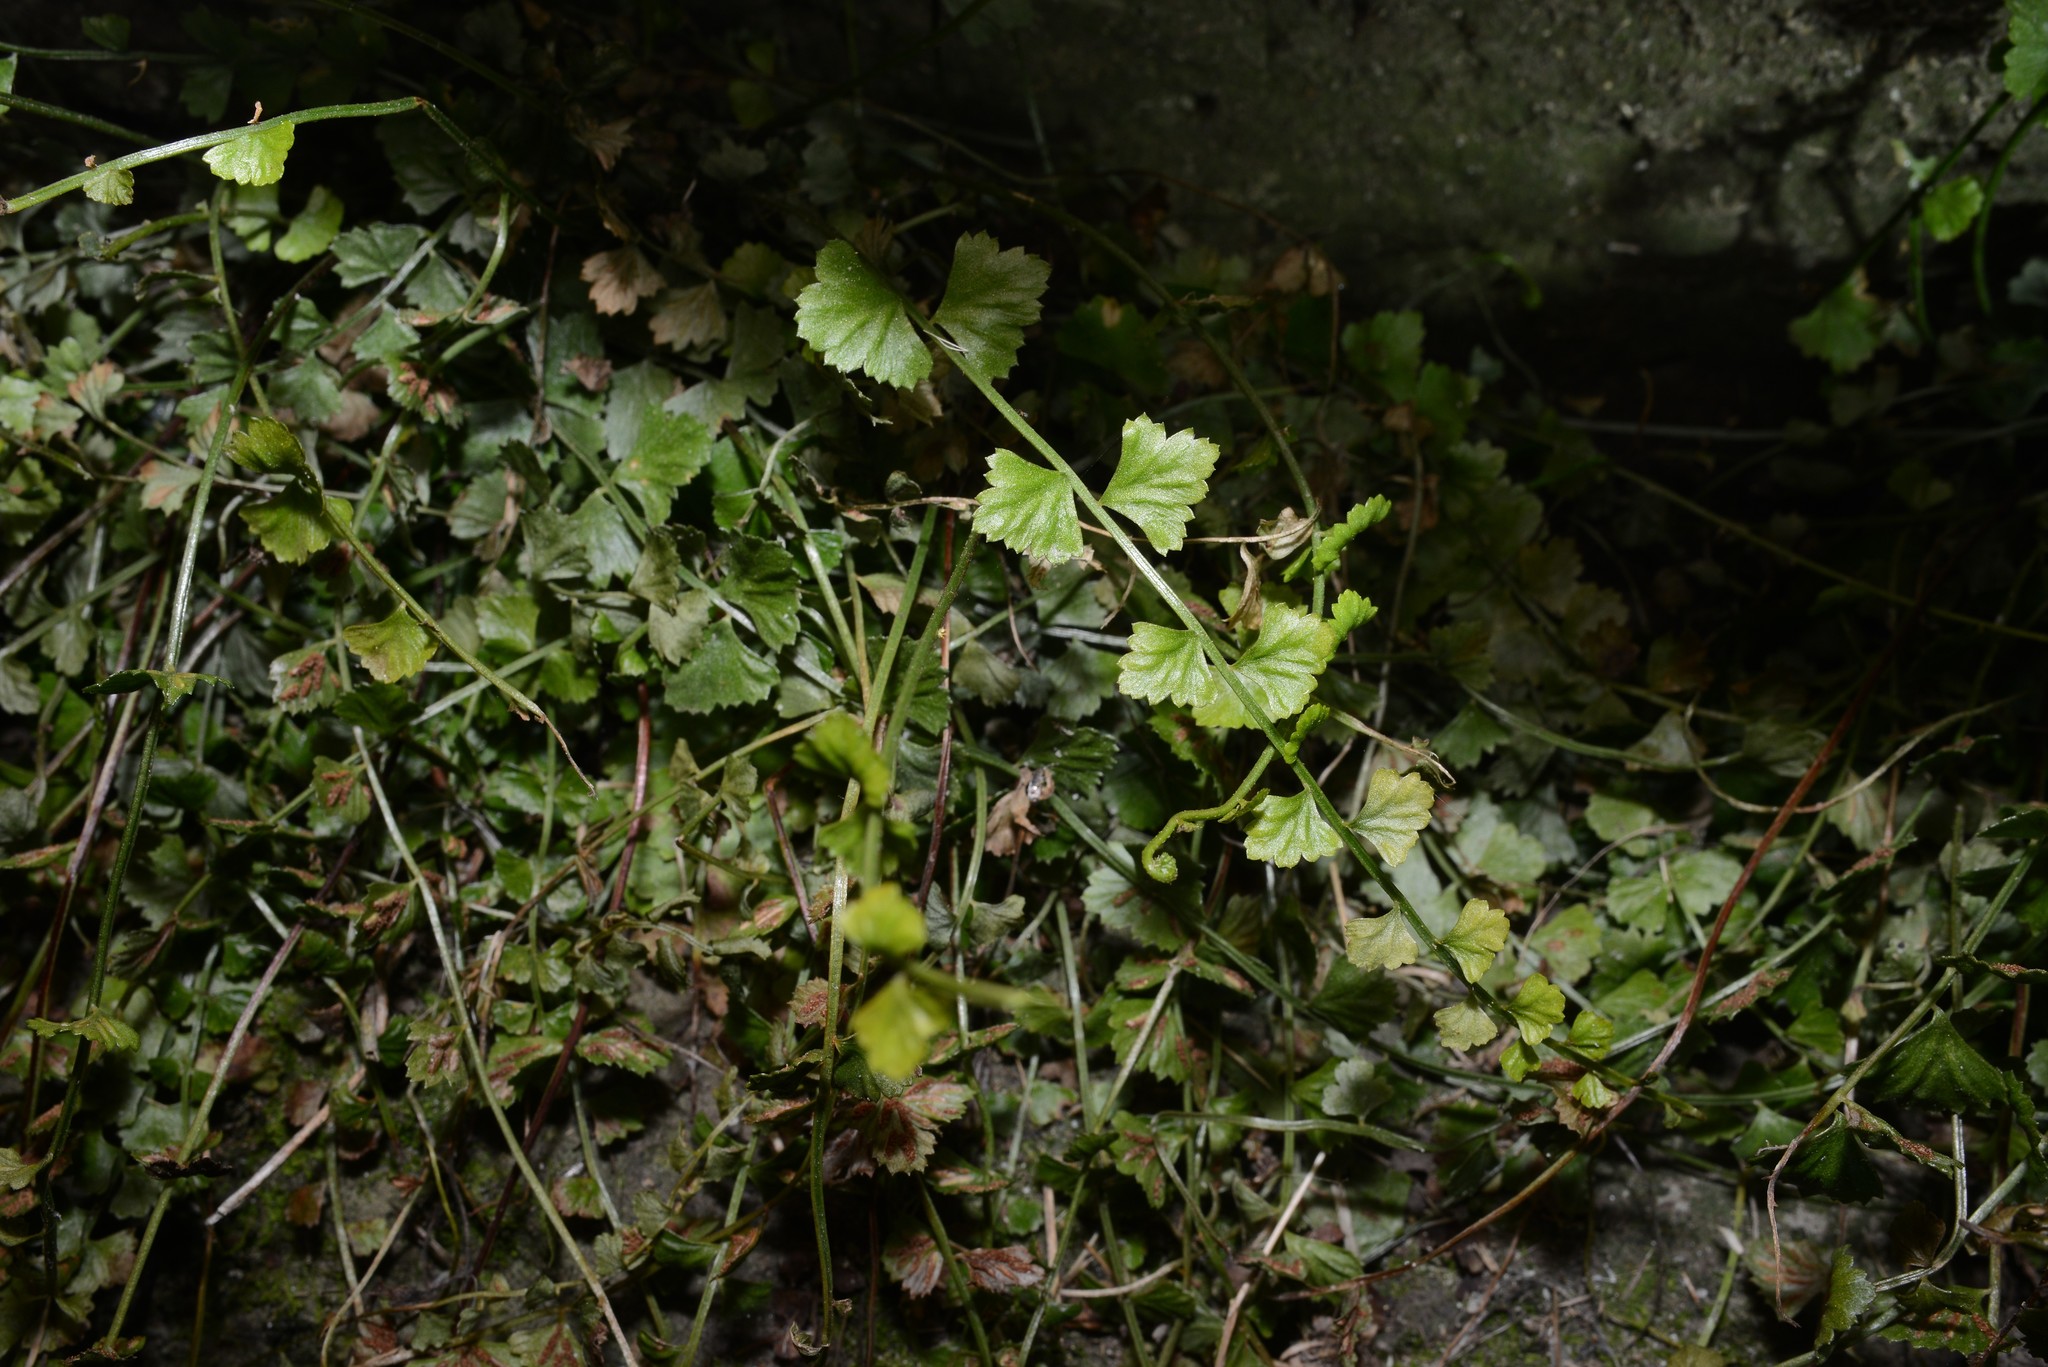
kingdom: Plantae
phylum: Tracheophyta
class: Polypodiopsida
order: Polypodiales
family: Aspleniaceae
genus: Asplenium
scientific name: Asplenium flabellifolium
